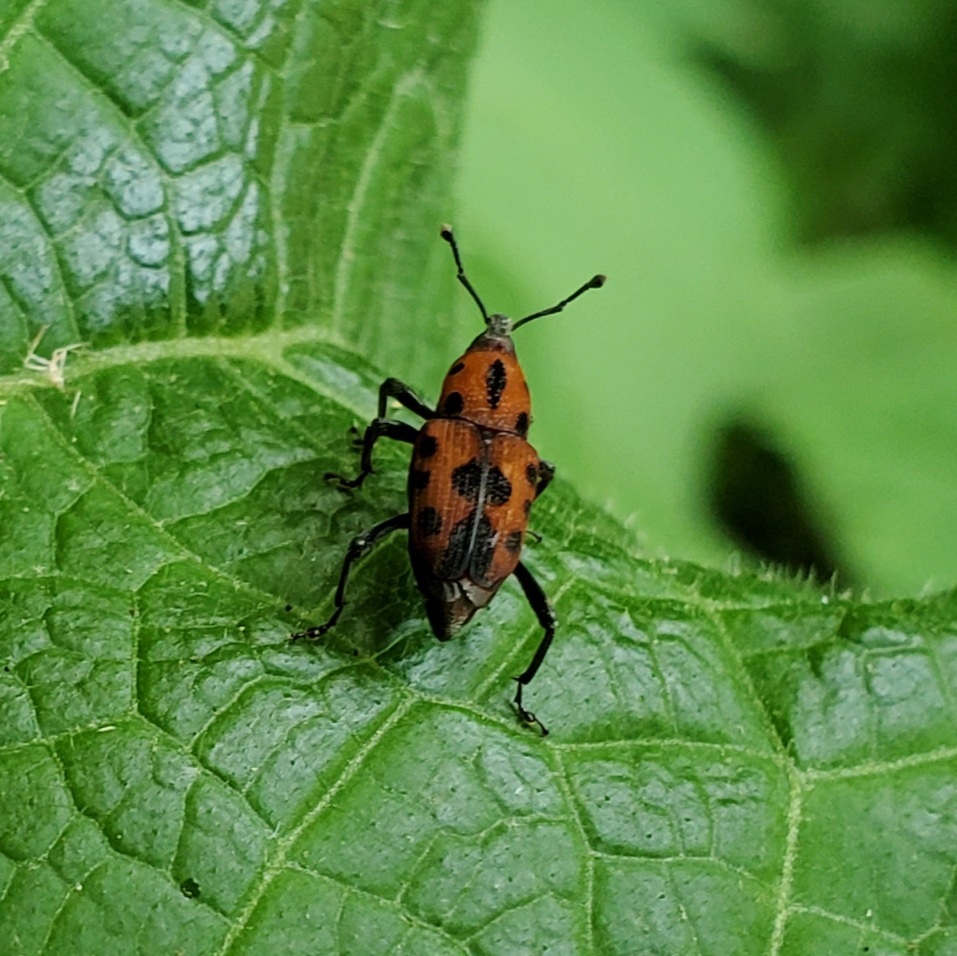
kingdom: Animalia
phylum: Arthropoda
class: Insecta
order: Coleoptera
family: Dryophthoridae
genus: Rhodobaenus
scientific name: Rhodobaenus quinquepunctatus
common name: Cocklebur weevil
